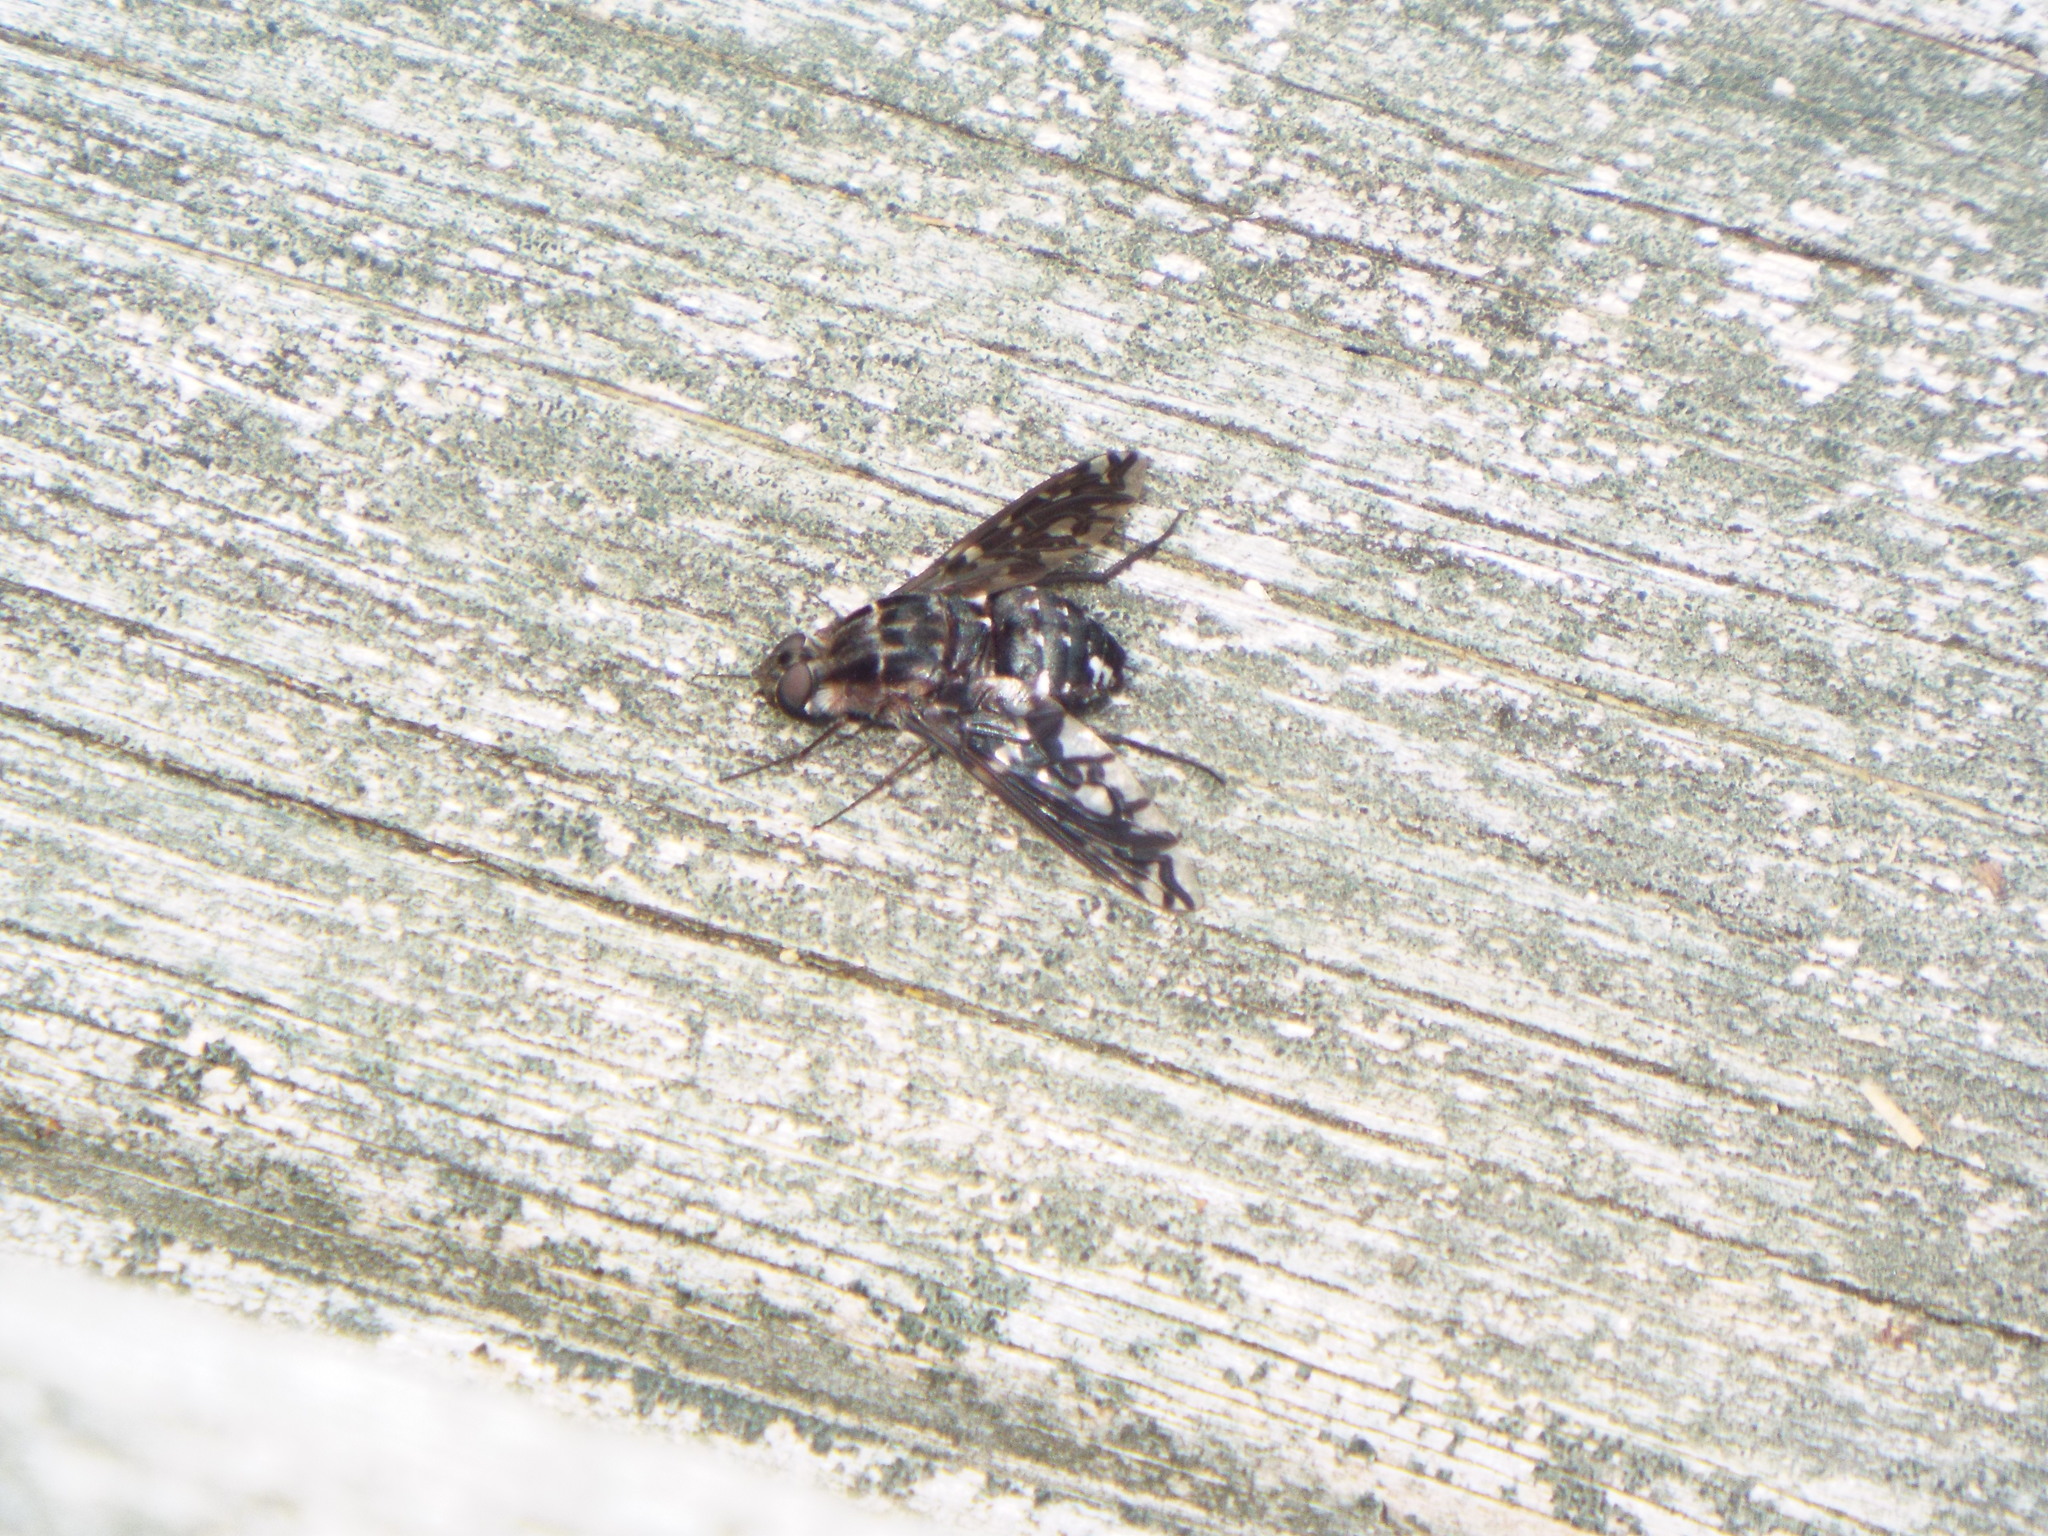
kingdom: Animalia
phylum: Arthropoda
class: Insecta
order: Diptera
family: Bombyliidae
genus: Xenox
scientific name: Xenox tigrinus
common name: Tiger bee fly
